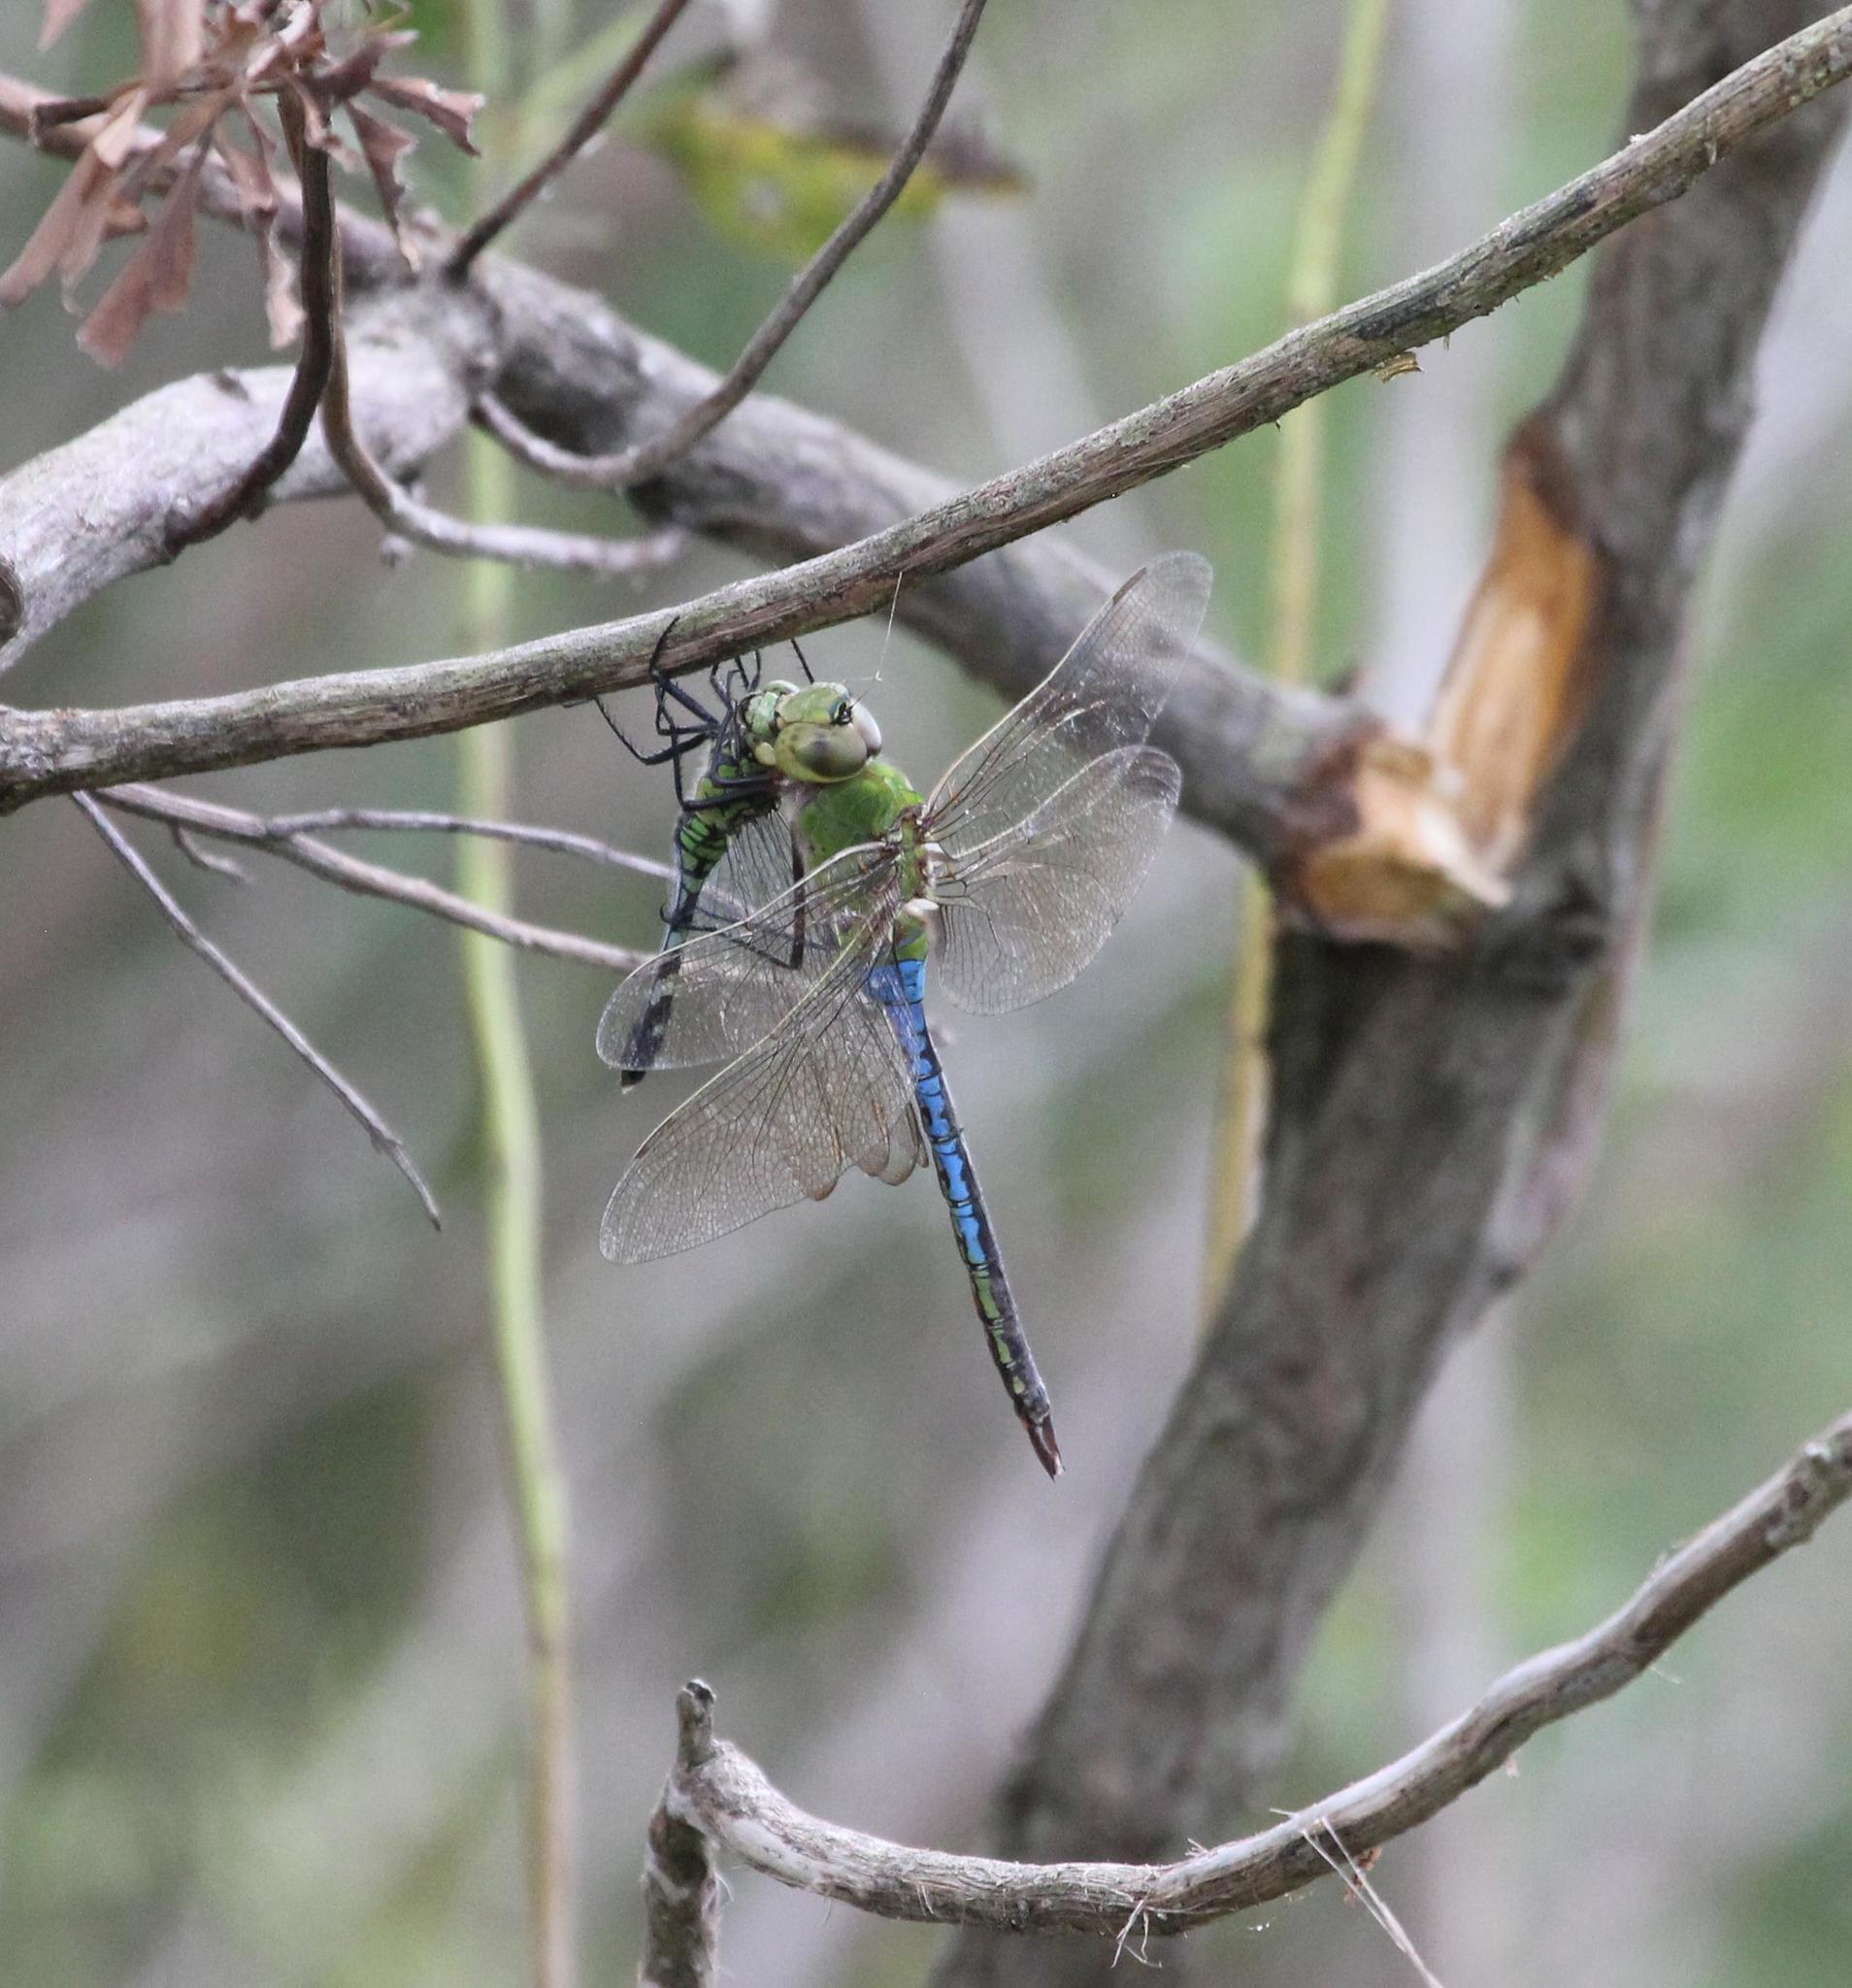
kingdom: Animalia
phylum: Arthropoda
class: Insecta
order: Odonata
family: Aeshnidae
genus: Anax
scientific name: Anax junius
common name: Common green darner
